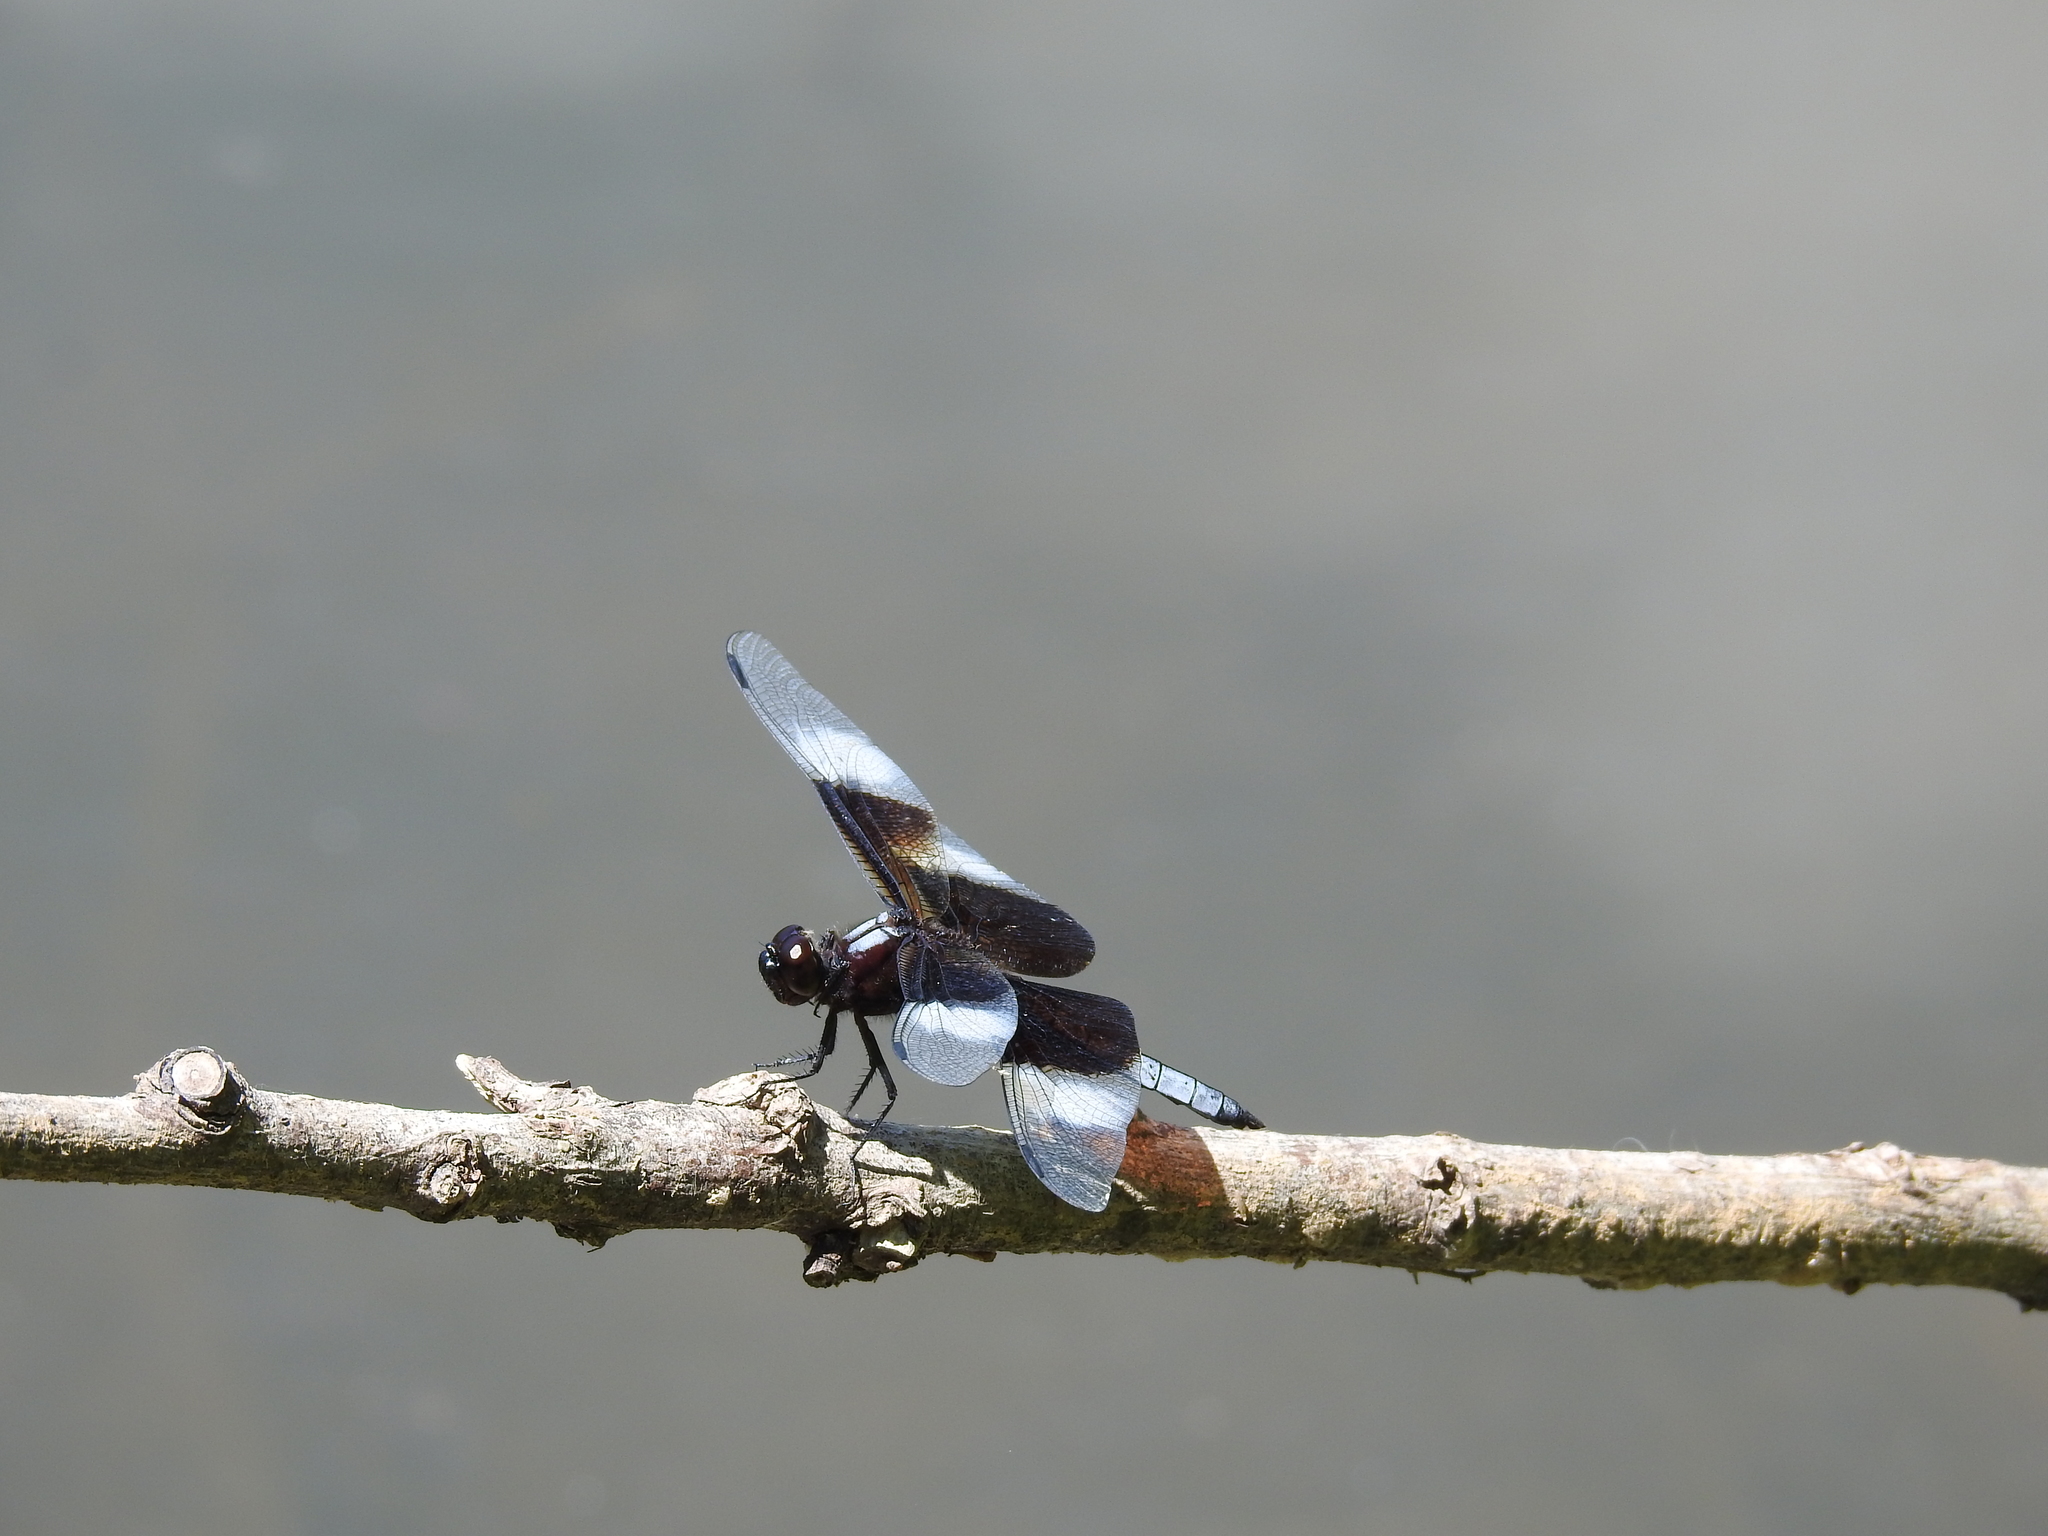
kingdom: Animalia
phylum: Arthropoda
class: Insecta
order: Odonata
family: Libellulidae
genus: Libellula
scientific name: Libellula luctuosa
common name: Widow skimmer
